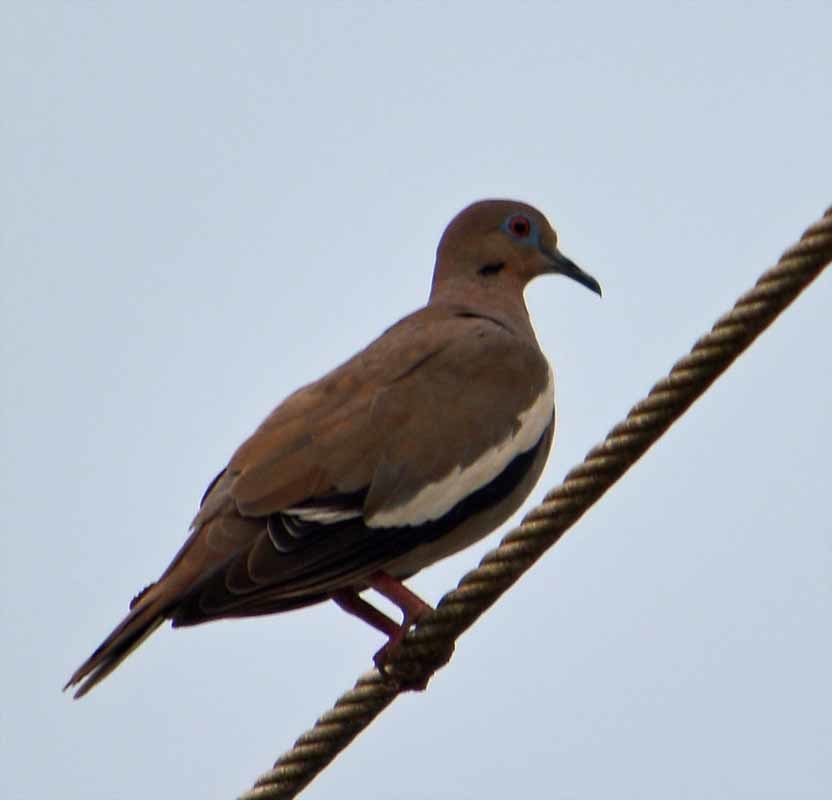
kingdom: Animalia
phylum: Chordata
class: Aves
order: Columbiformes
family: Columbidae
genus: Zenaida
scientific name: Zenaida asiatica
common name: White-winged dove
